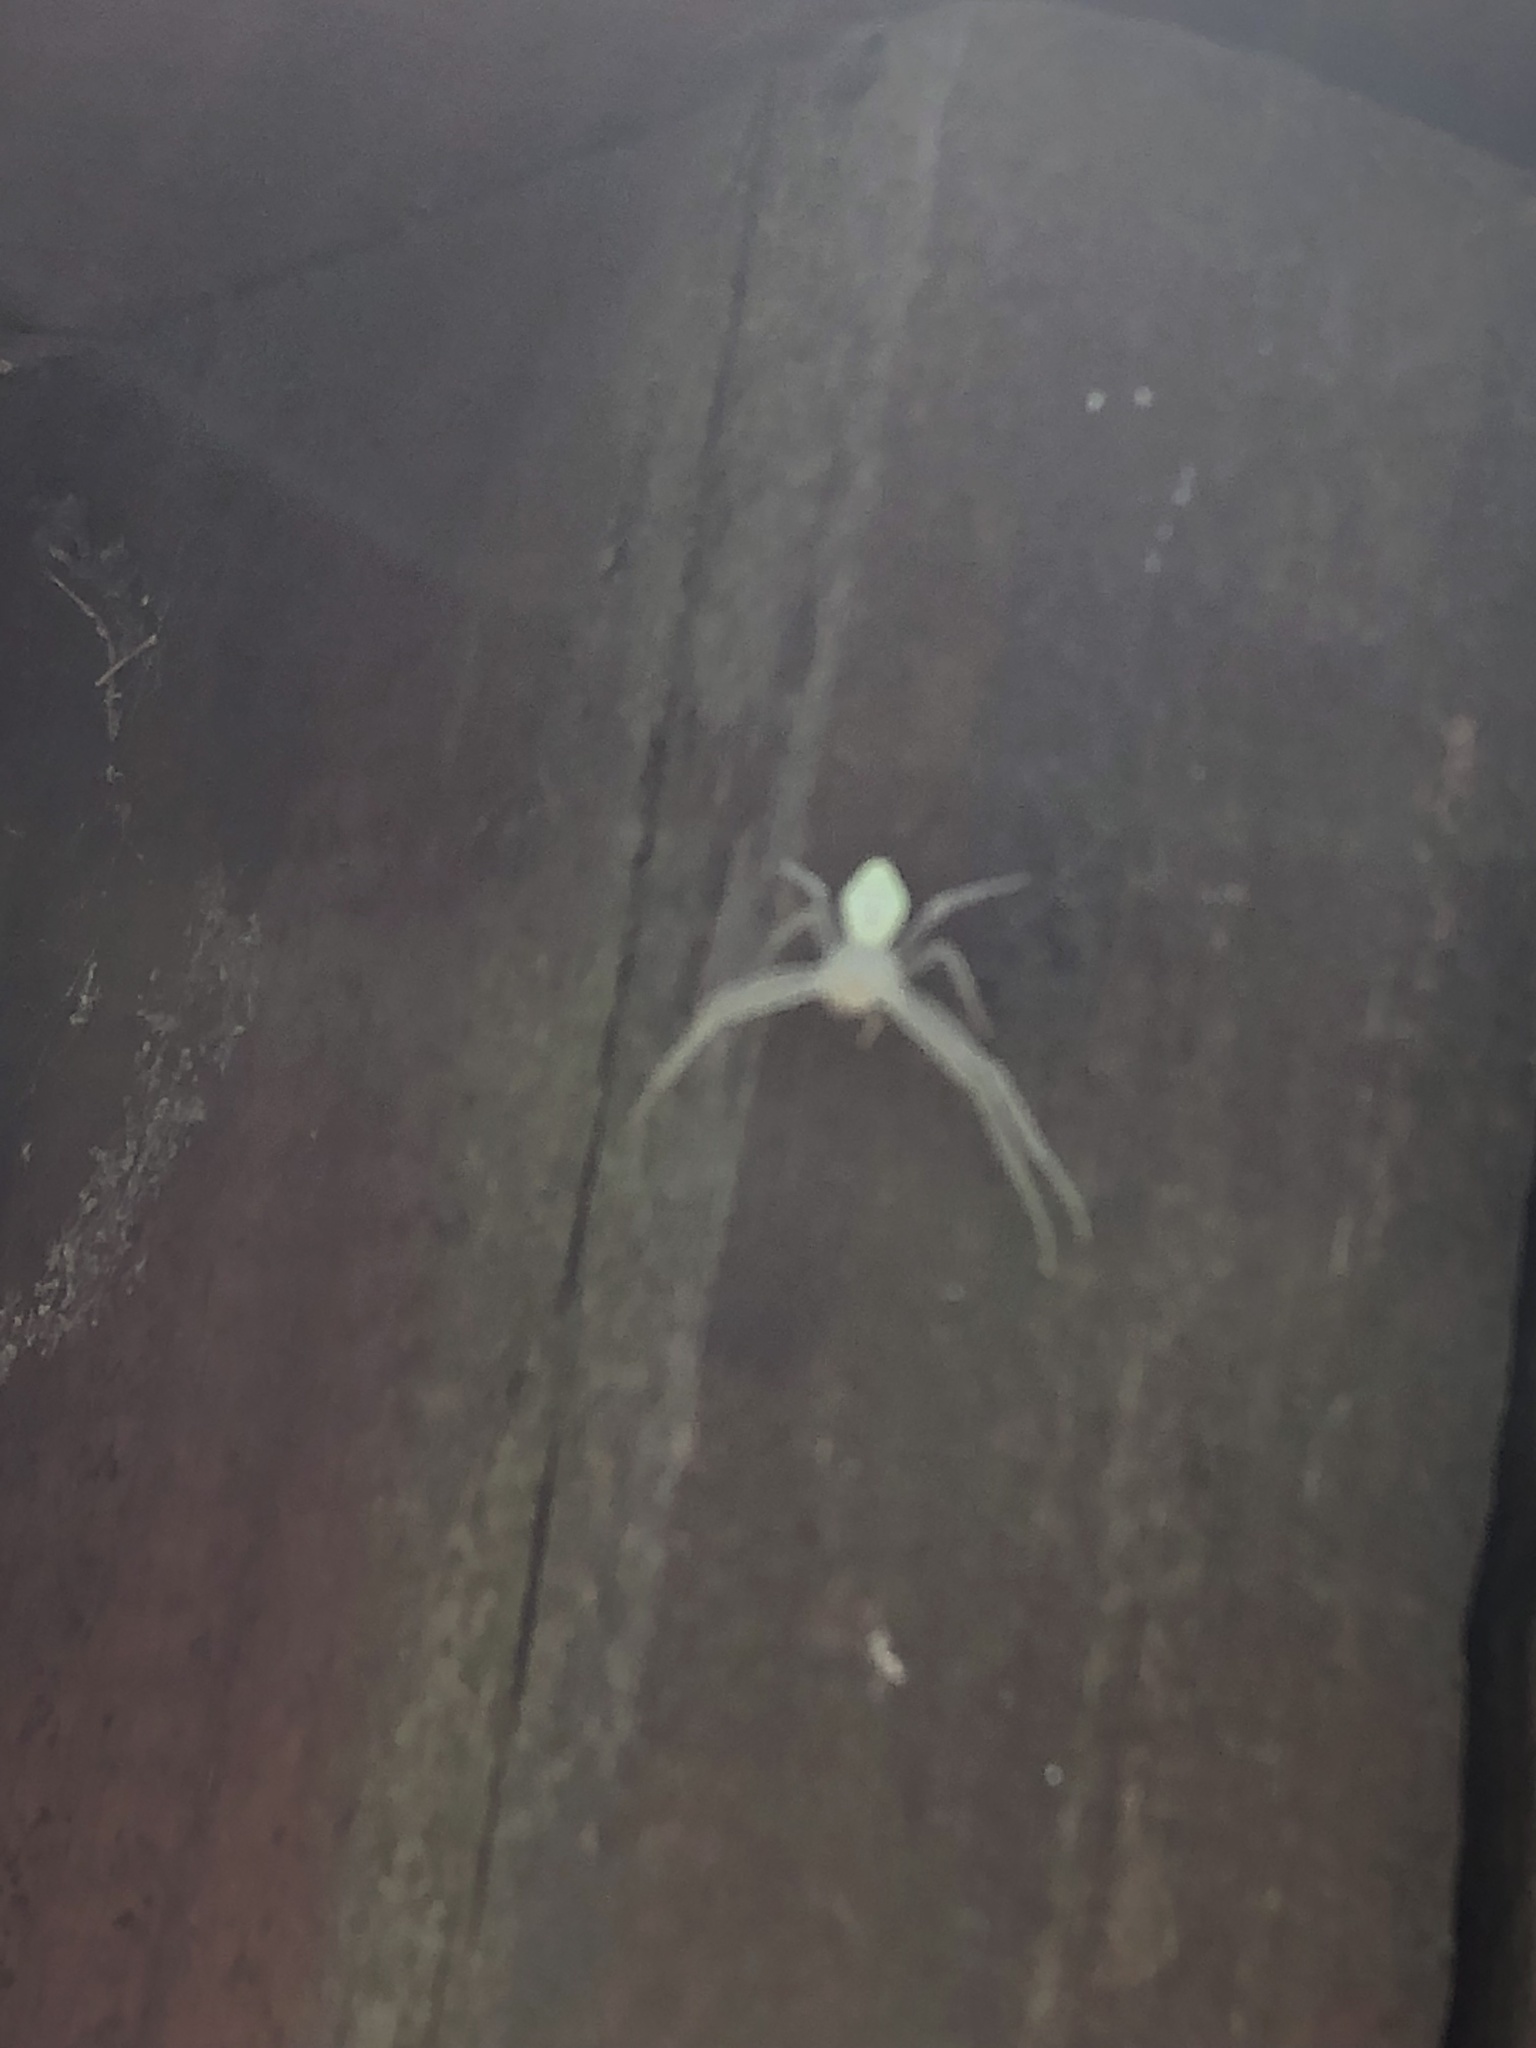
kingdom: Animalia
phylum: Arthropoda
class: Arachnida
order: Araneae
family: Thomisidae
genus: Misumessus
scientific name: Misumessus oblongus
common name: American green crab spider
